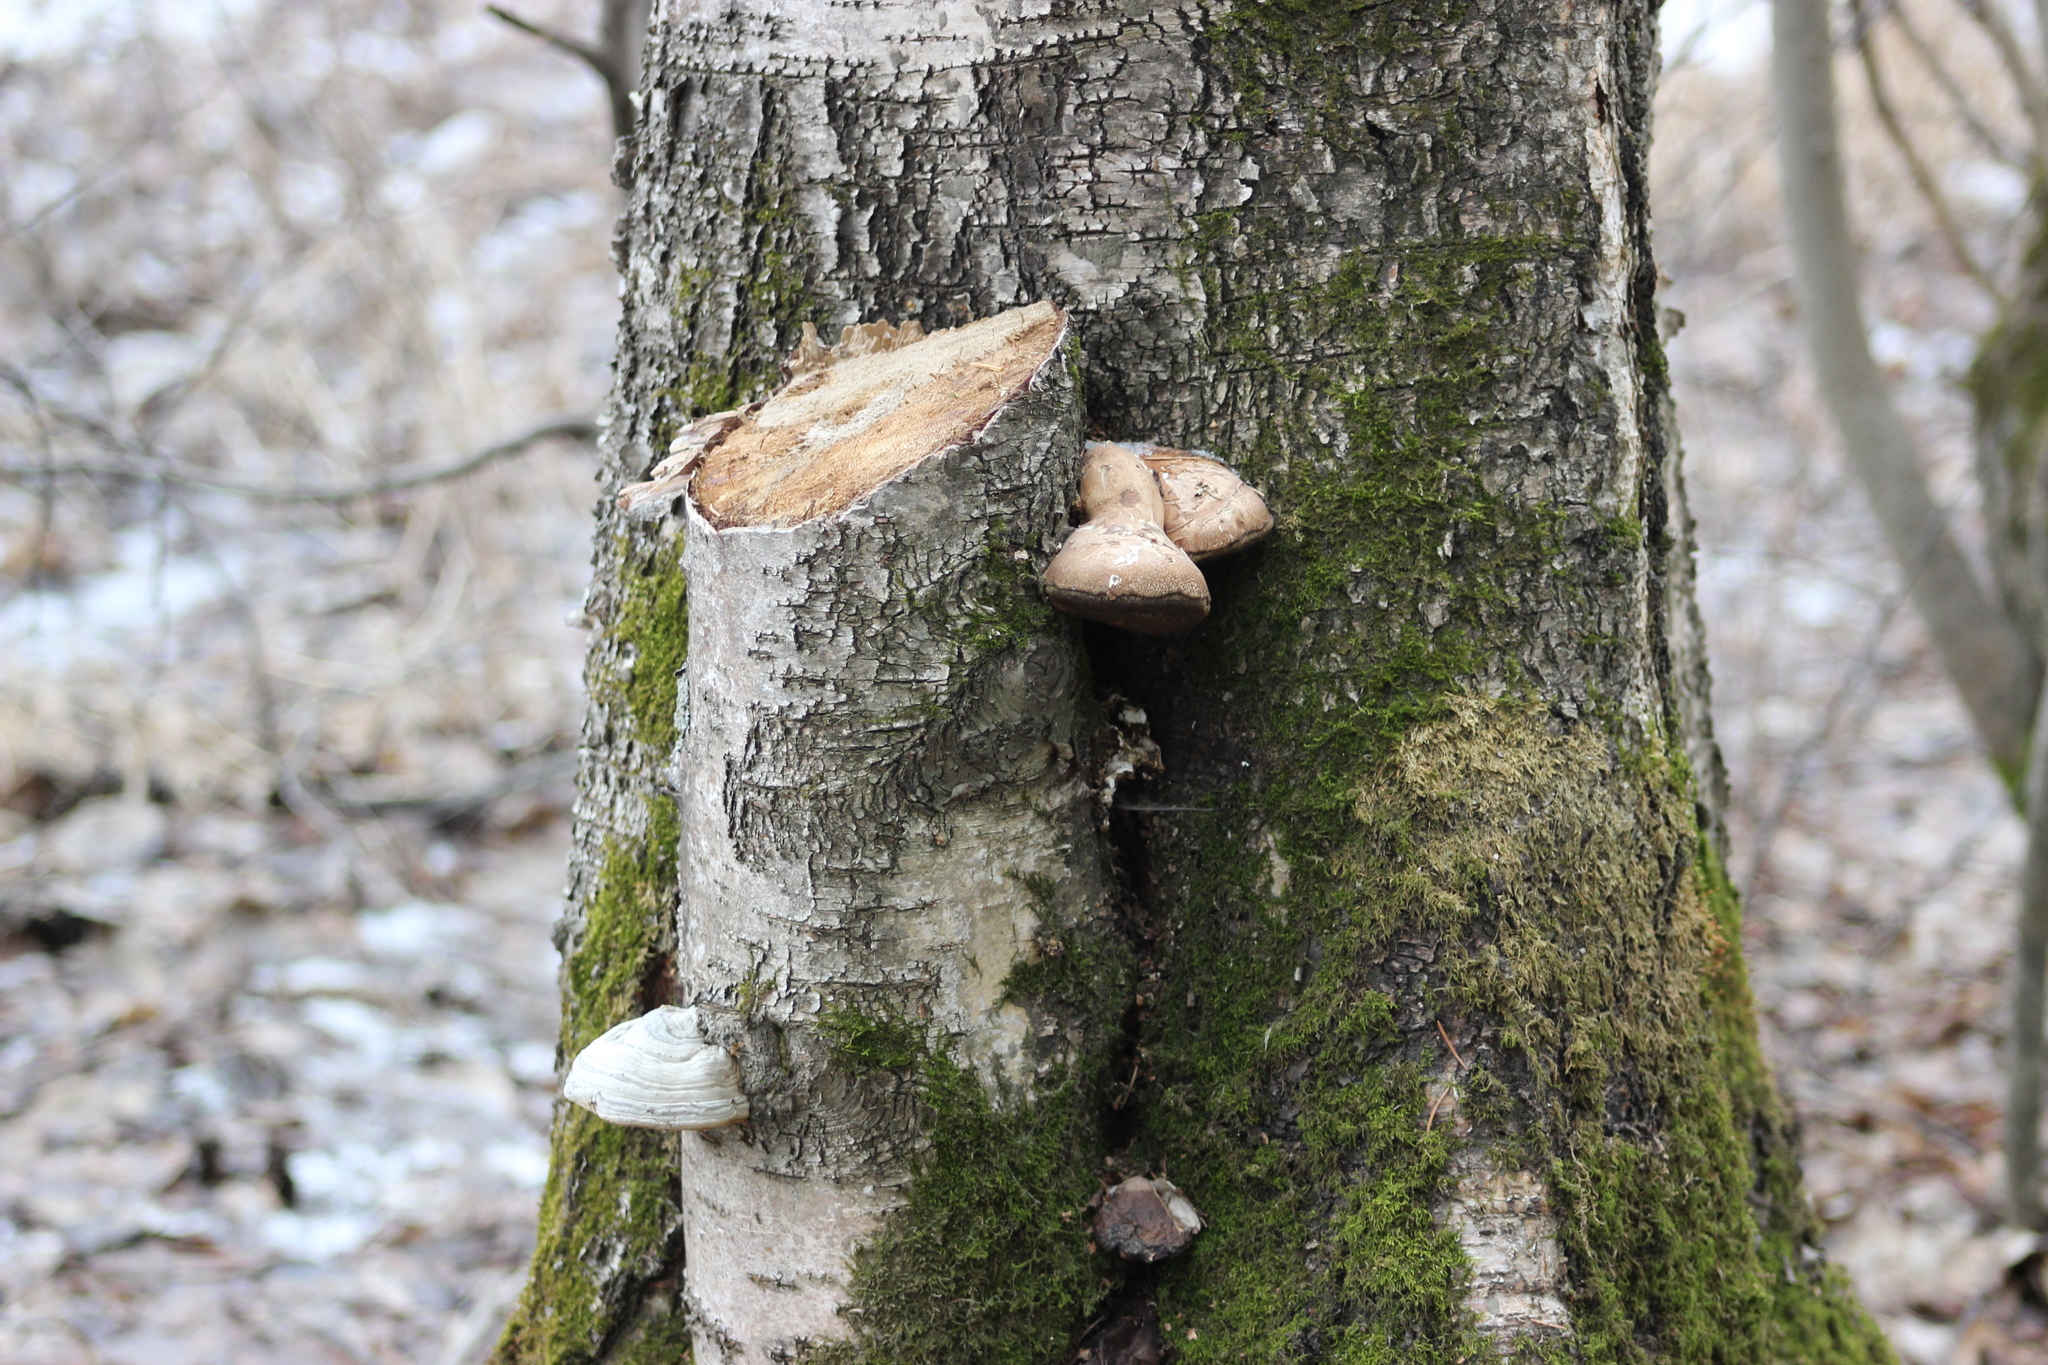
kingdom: Fungi
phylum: Basidiomycota
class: Agaricomycetes
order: Polyporales
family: Fomitopsidaceae
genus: Fomitopsis
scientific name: Fomitopsis betulina
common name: Birch polypore
